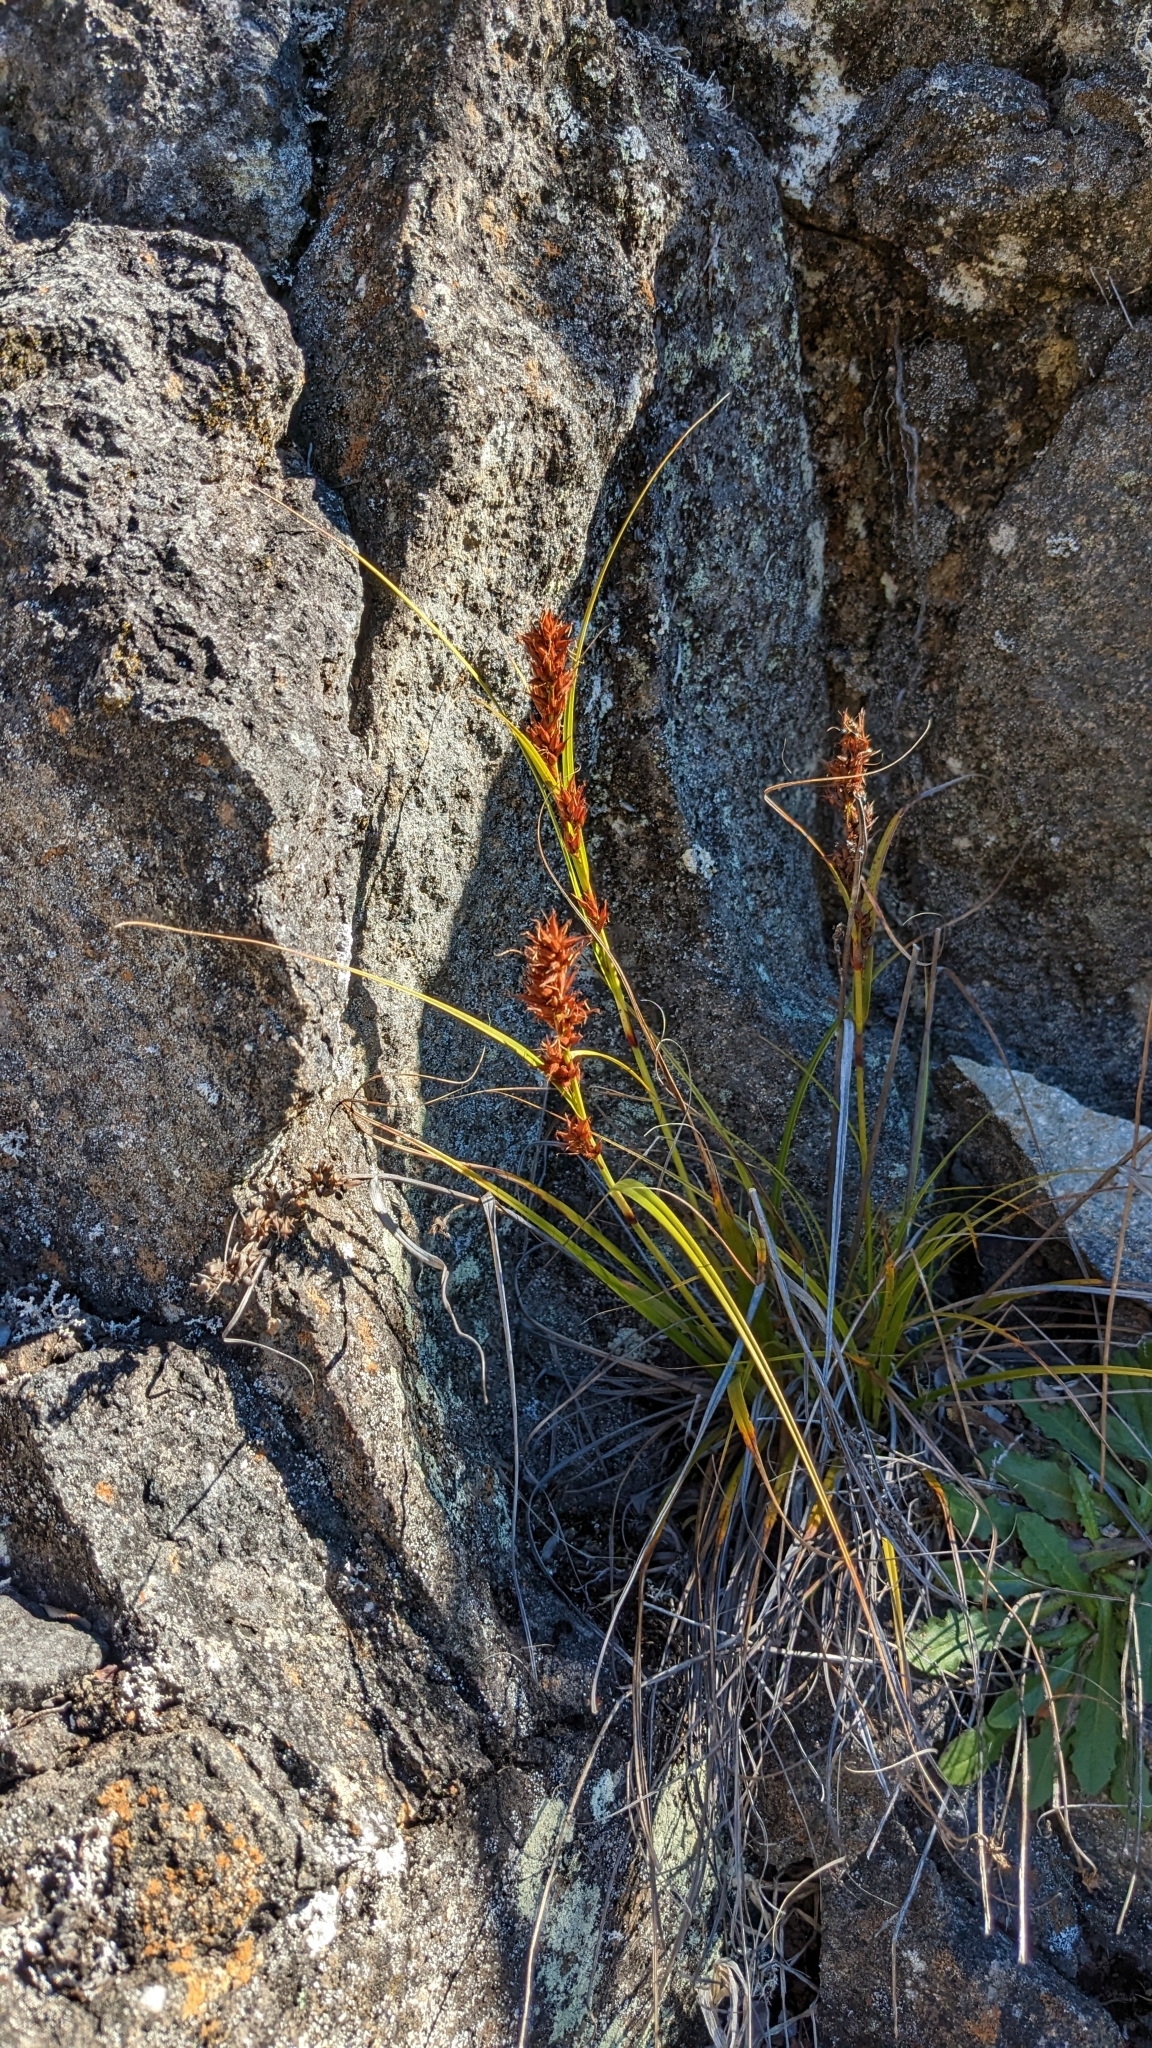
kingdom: Plantae
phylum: Tracheophyta
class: Liliopsida
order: Poales
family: Cyperaceae
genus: Morelotia
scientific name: Morelotia gahniiformis
